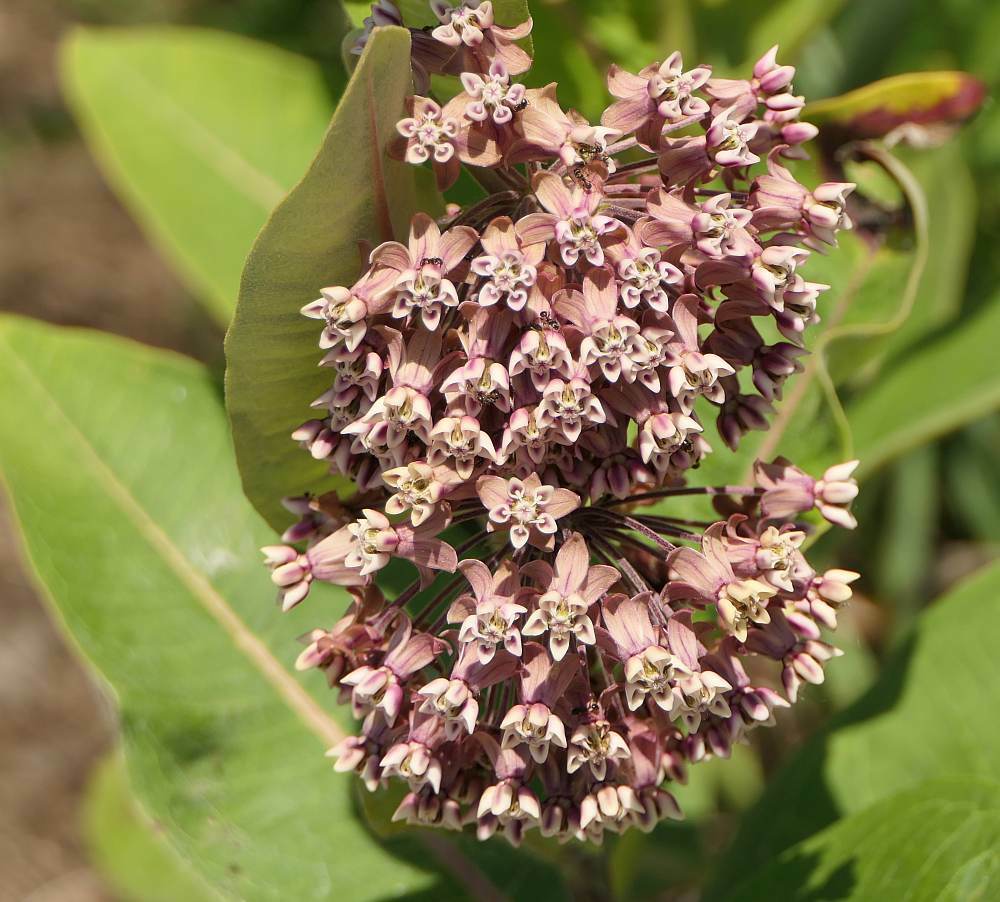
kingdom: Plantae
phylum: Tracheophyta
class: Magnoliopsida
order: Gentianales
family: Apocynaceae
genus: Asclepias
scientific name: Asclepias syriaca
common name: Common milkweed
